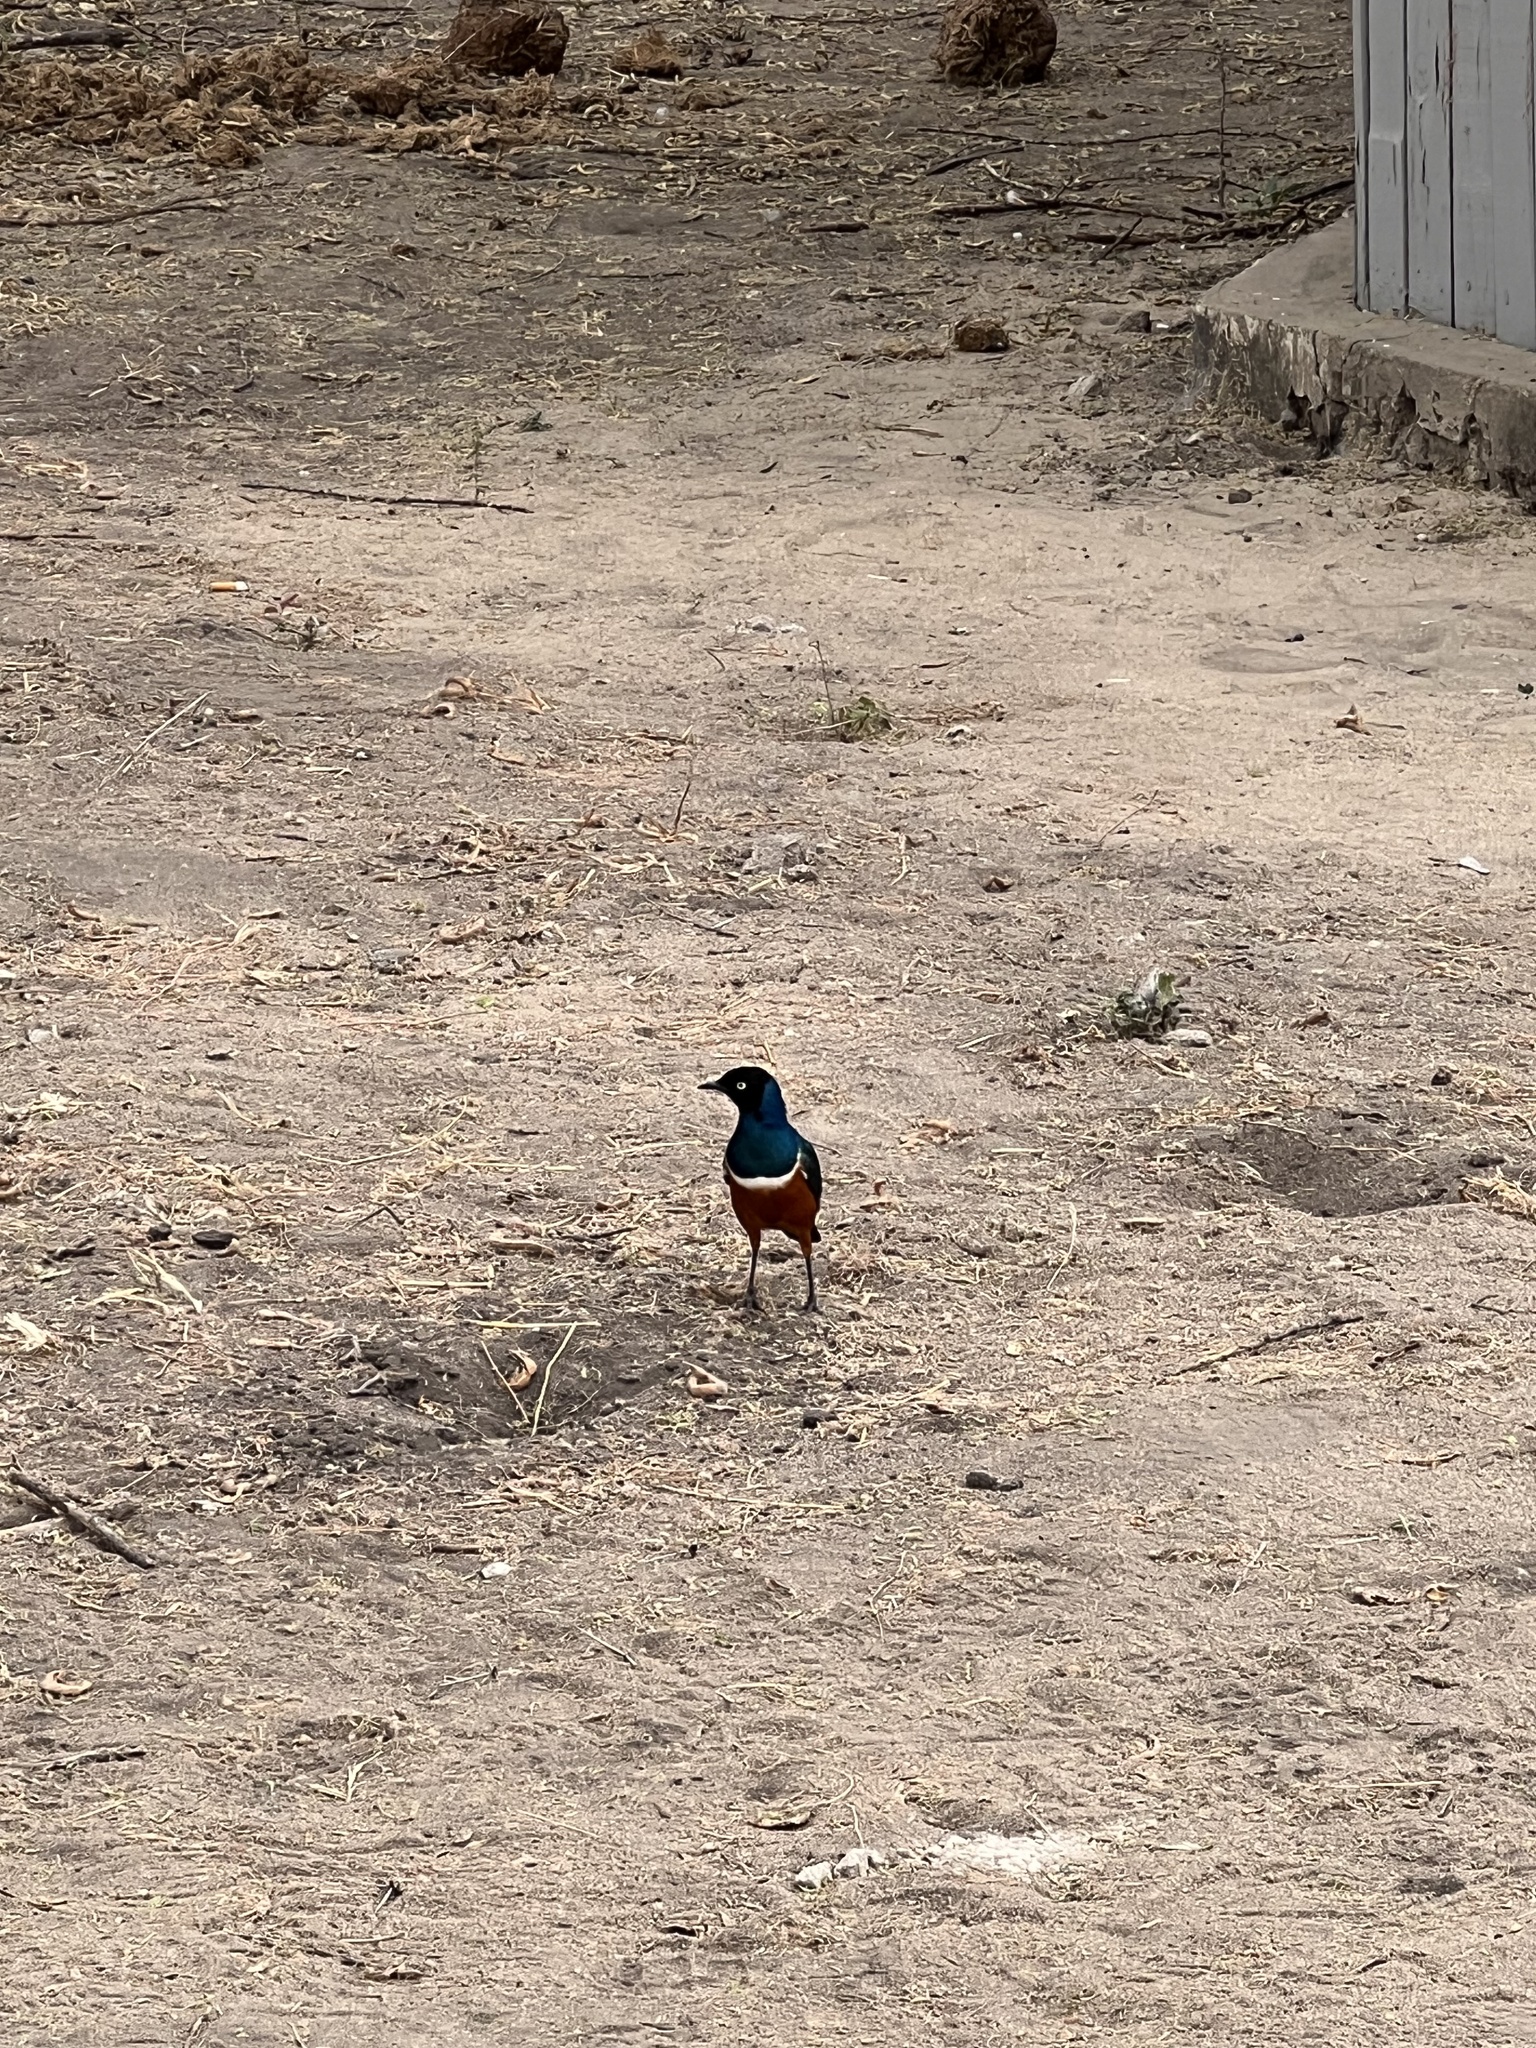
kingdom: Animalia
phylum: Chordata
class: Aves
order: Passeriformes
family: Sturnidae
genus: Lamprotornis
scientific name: Lamprotornis superbus
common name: Superb starling
